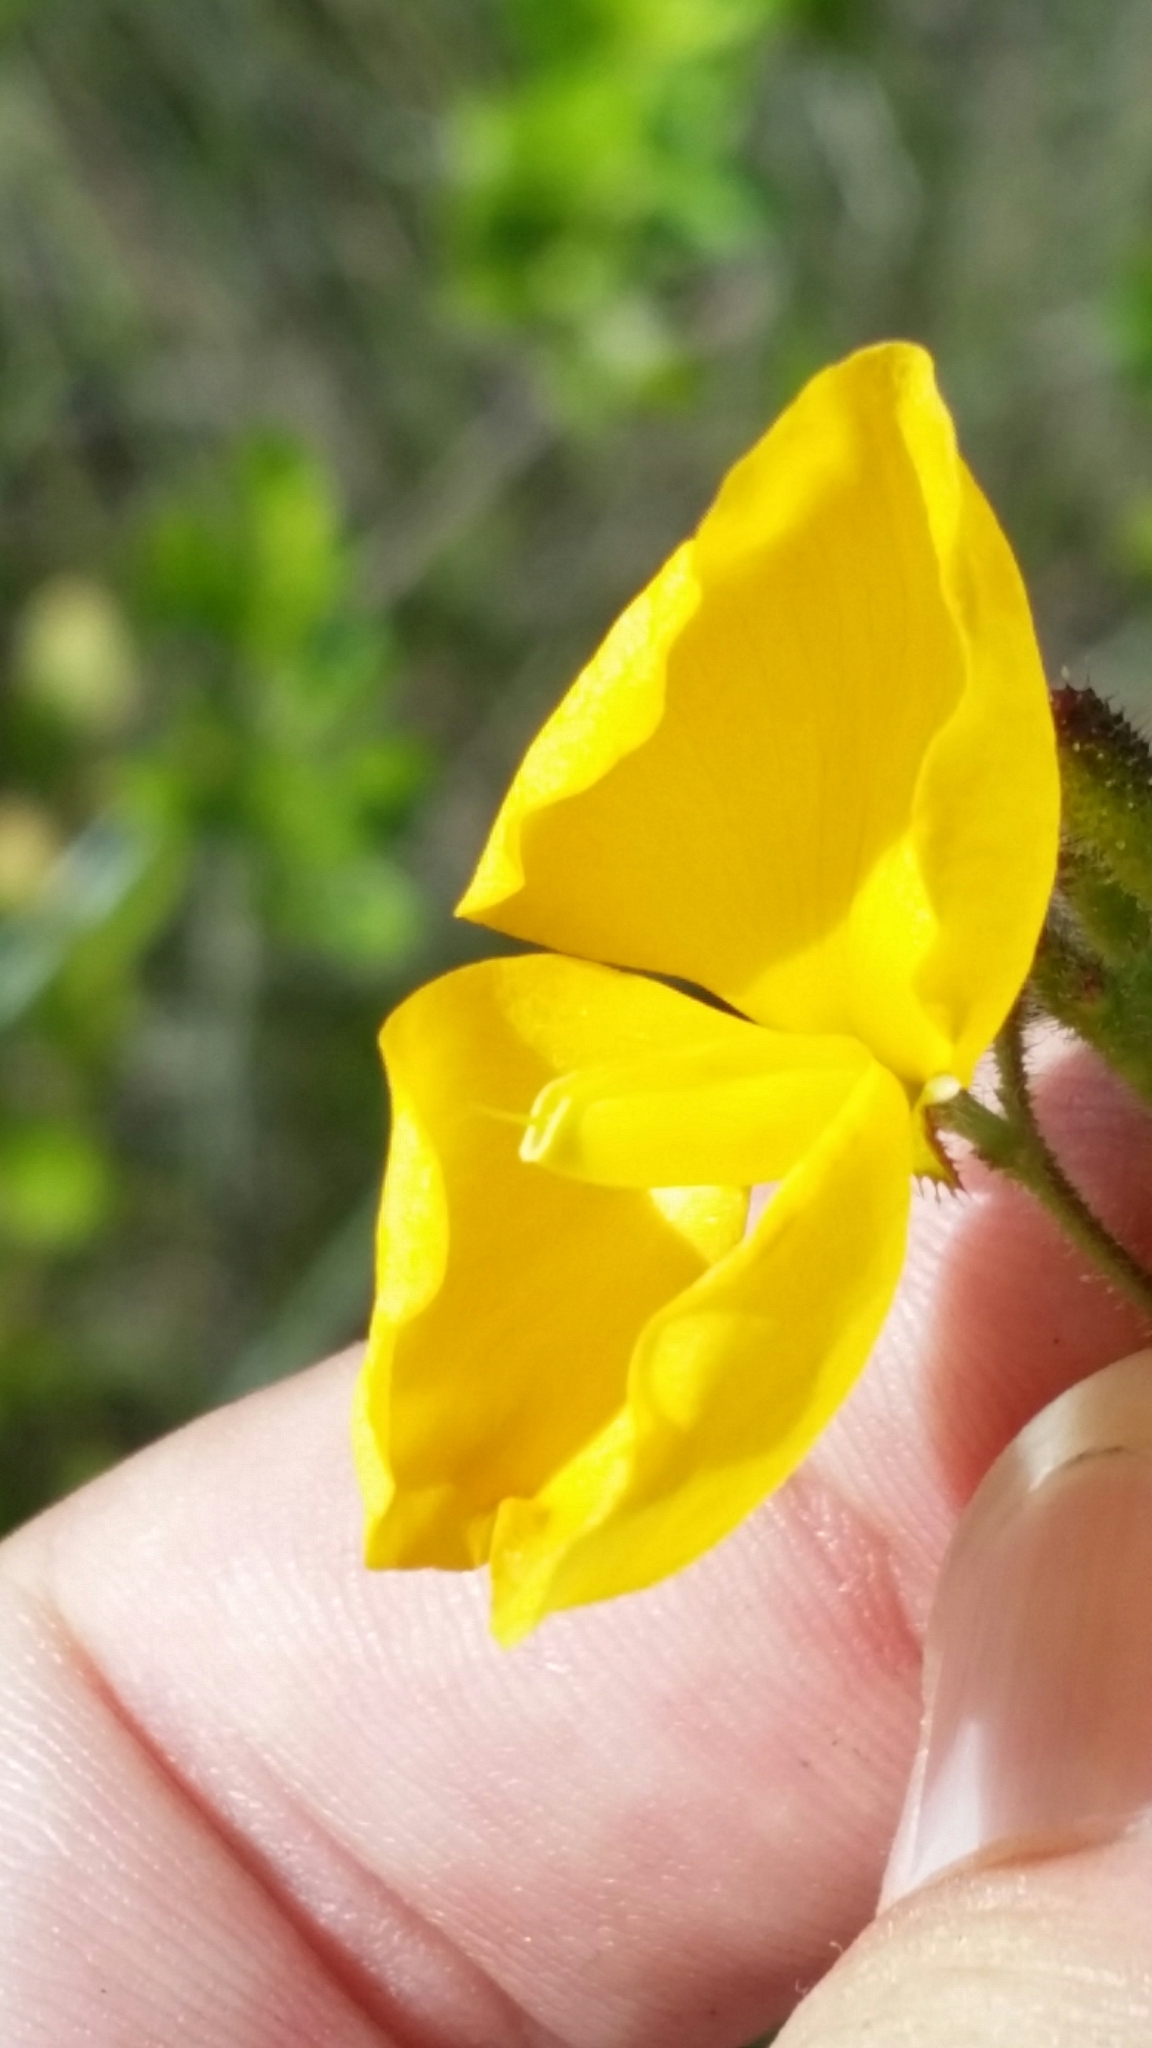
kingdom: Plantae
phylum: Tracheophyta
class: Magnoliopsida
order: Fabales
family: Fabaceae
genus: Chapmannia
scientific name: Chapmannia floridana
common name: Alicia
